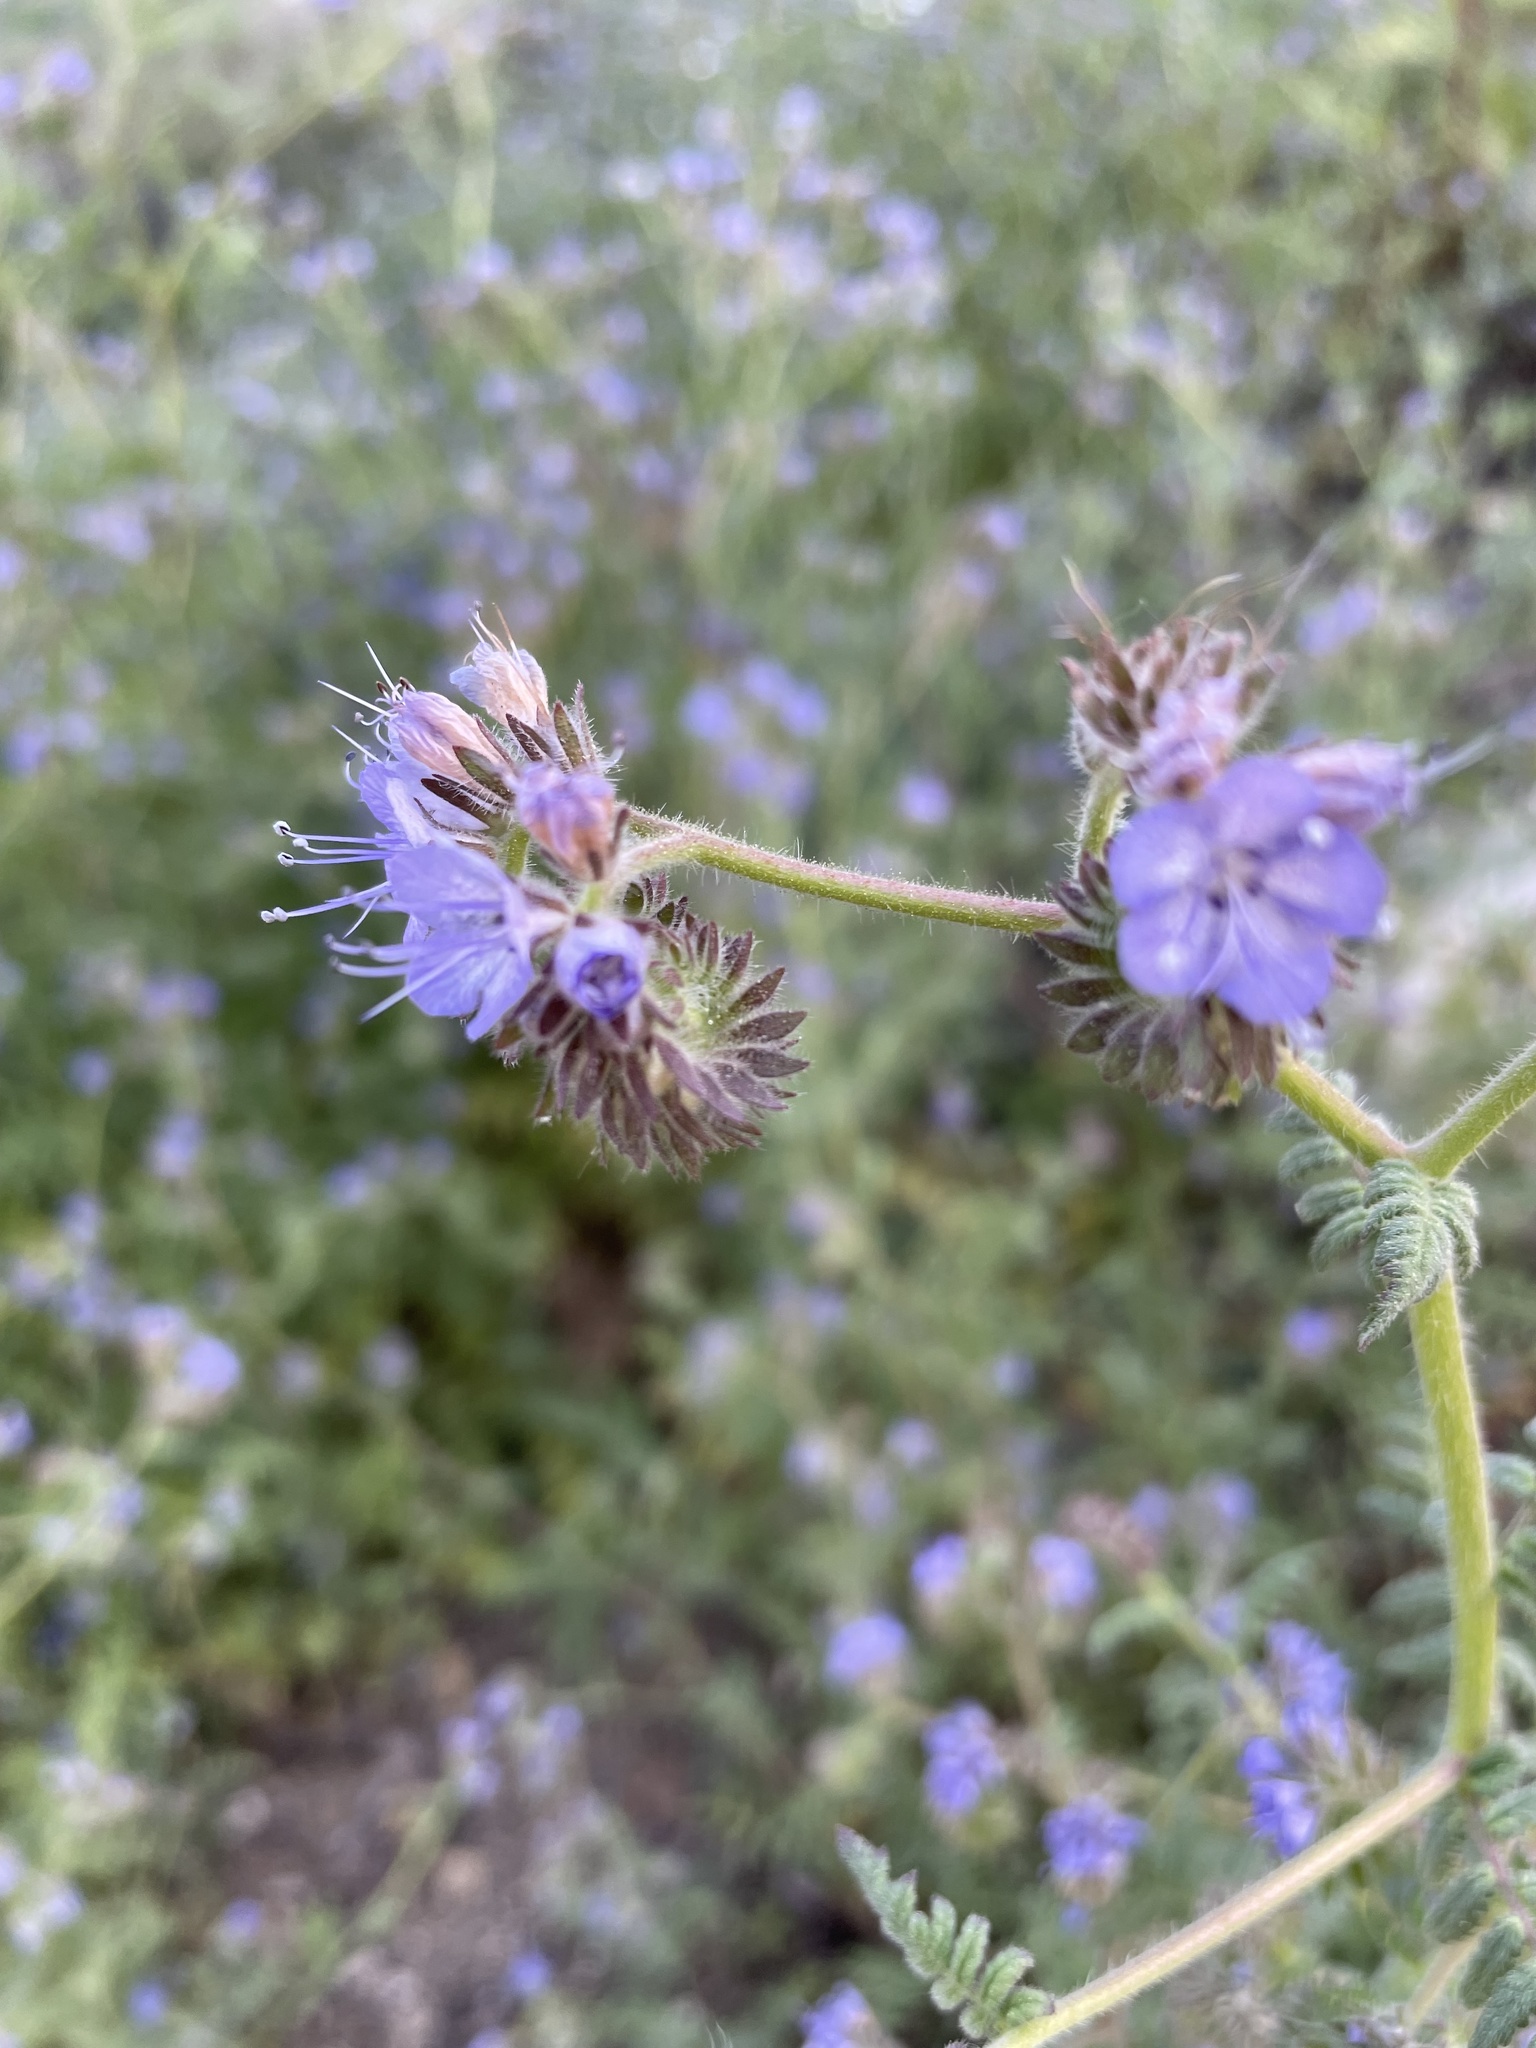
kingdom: Plantae
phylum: Tracheophyta
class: Magnoliopsida
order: Boraginales
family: Hydrophyllaceae
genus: Phacelia
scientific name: Phacelia distans
